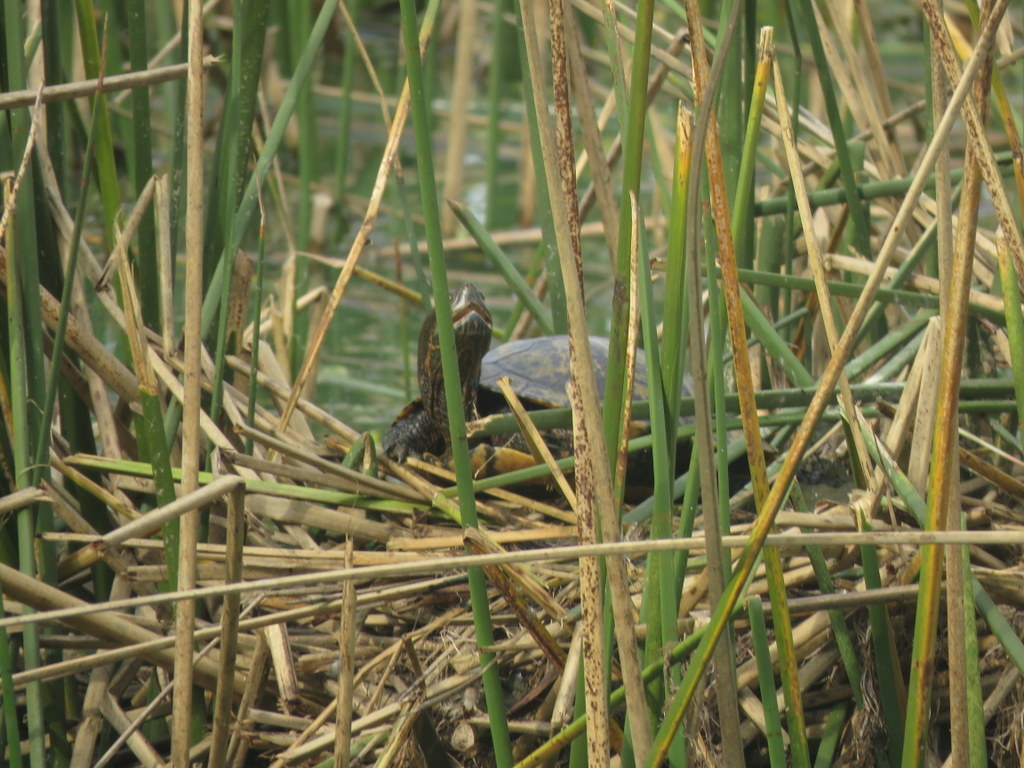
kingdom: Animalia
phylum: Chordata
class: Testudines
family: Emydidae
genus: Trachemys
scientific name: Trachemys dorbigni
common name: Black-bellied slider
